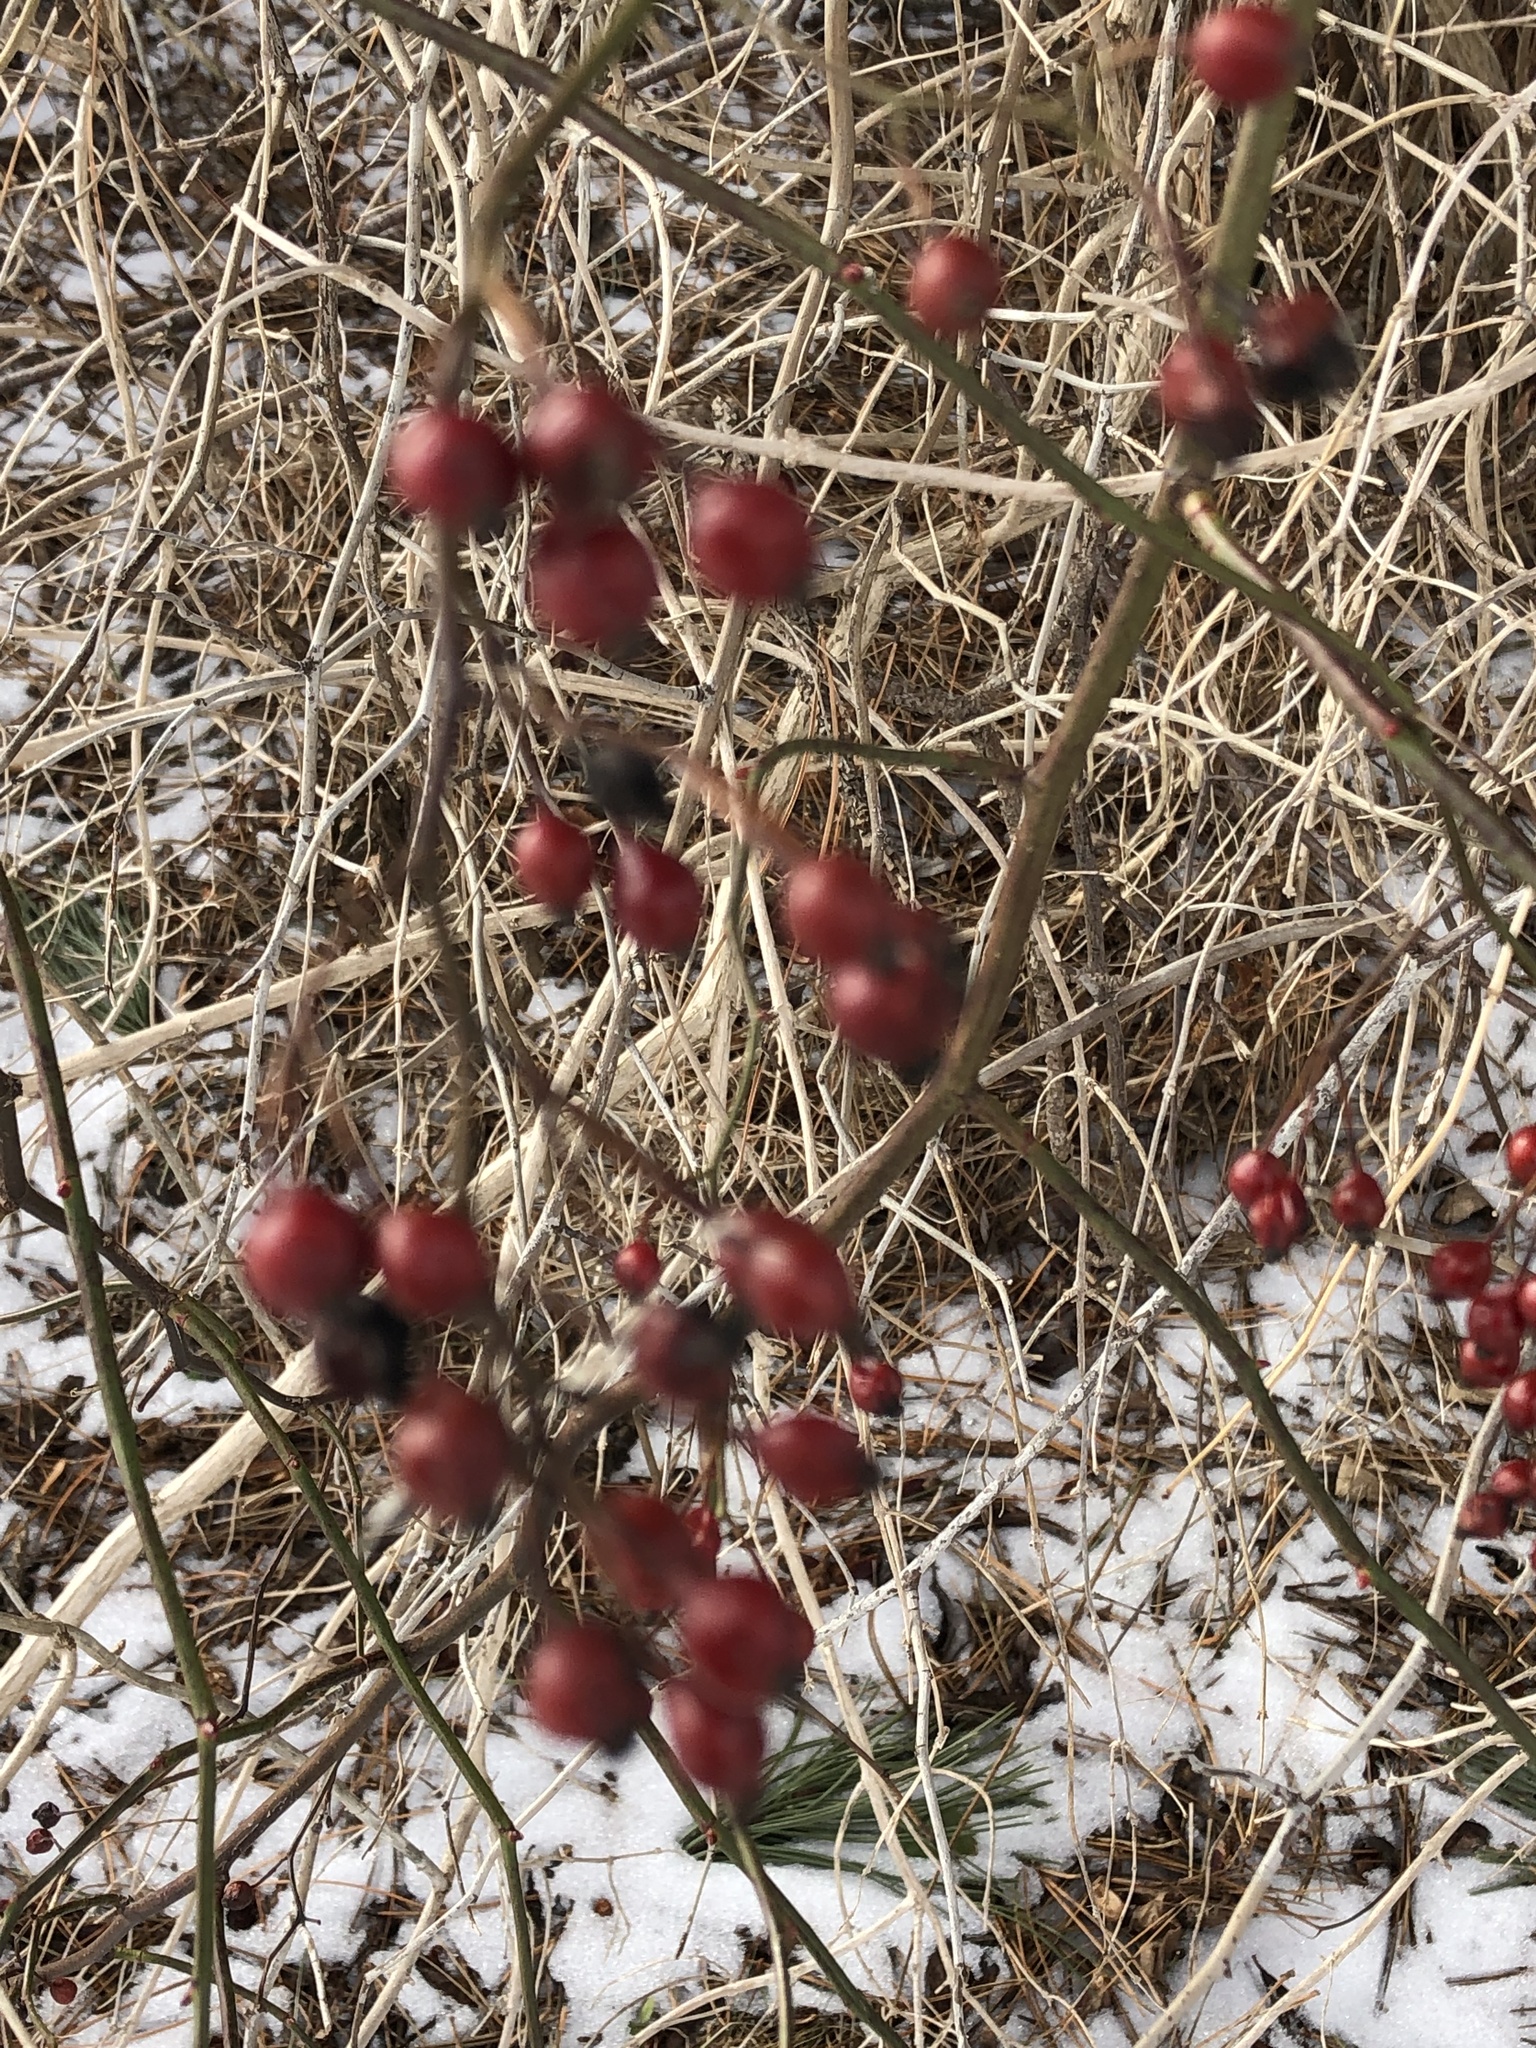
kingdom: Plantae
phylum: Tracheophyta
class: Magnoliopsida
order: Rosales
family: Rosaceae
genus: Rosa
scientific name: Rosa multiflora
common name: Multiflora rose
